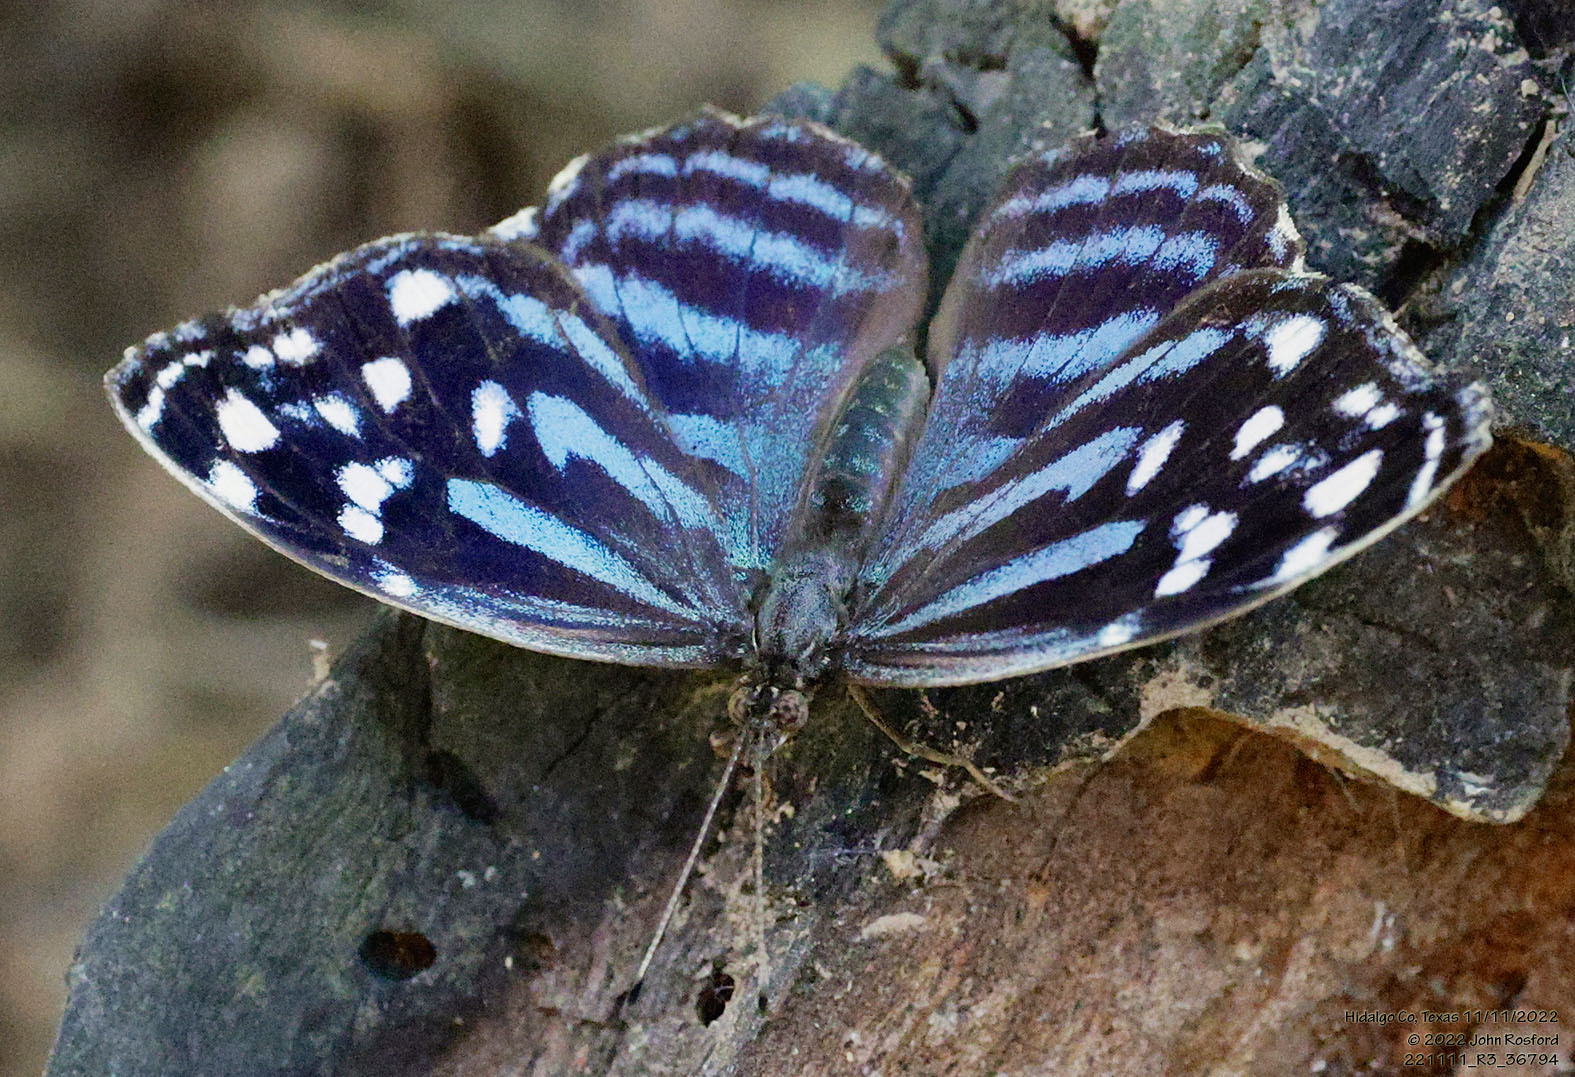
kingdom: Animalia
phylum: Arthropoda
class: Insecta
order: Lepidoptera
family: Nymphalidae
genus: Myscelia
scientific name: Myscelia ethusa
